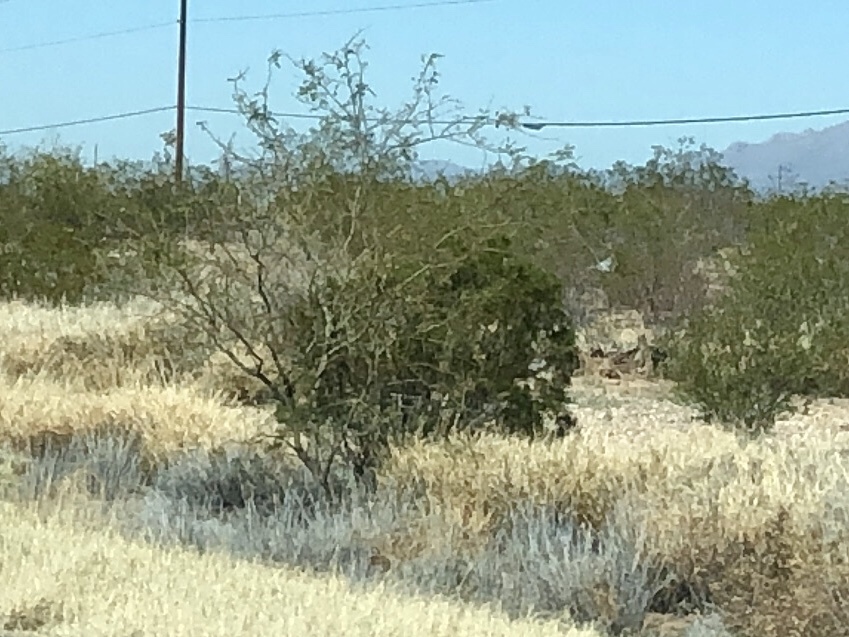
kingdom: Plantae
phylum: Tracheophyta
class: Magnoliopsida
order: Zygophyllales
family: Zygophyllaceae
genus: Larrea
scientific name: Larrea tridentata
